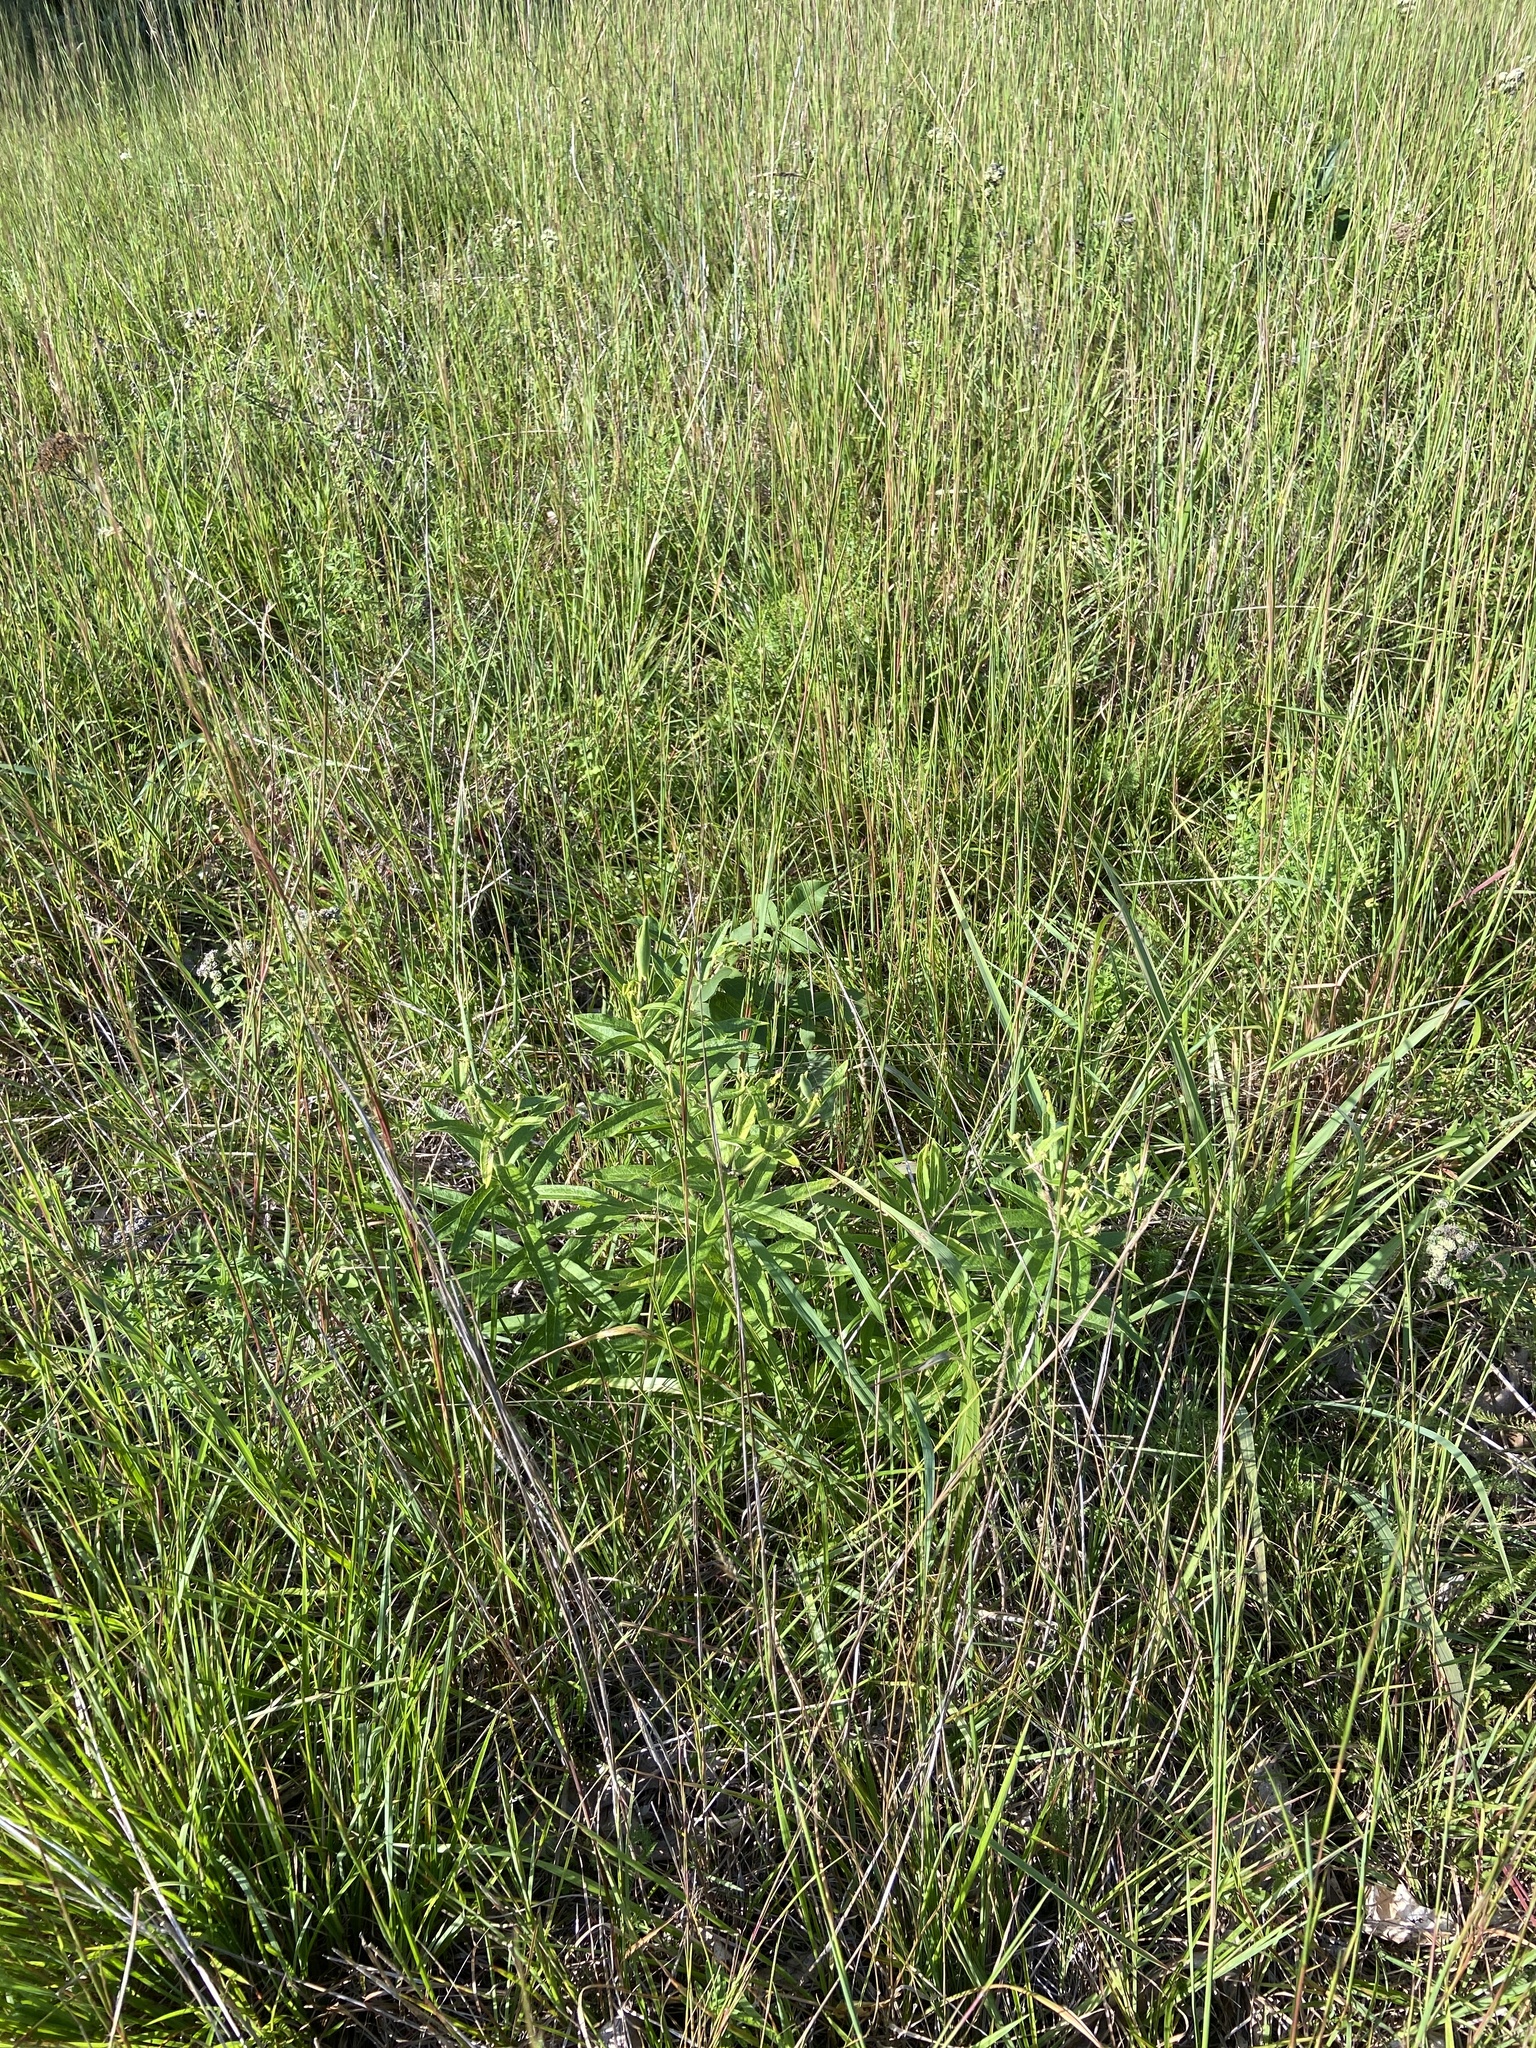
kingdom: Plantae
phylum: Tracheophyta
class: Magnoliopsida
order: Gentianales
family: Apocynaceae
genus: Asclepias
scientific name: Asclepias tuberosa
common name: Butterfly milkweed
